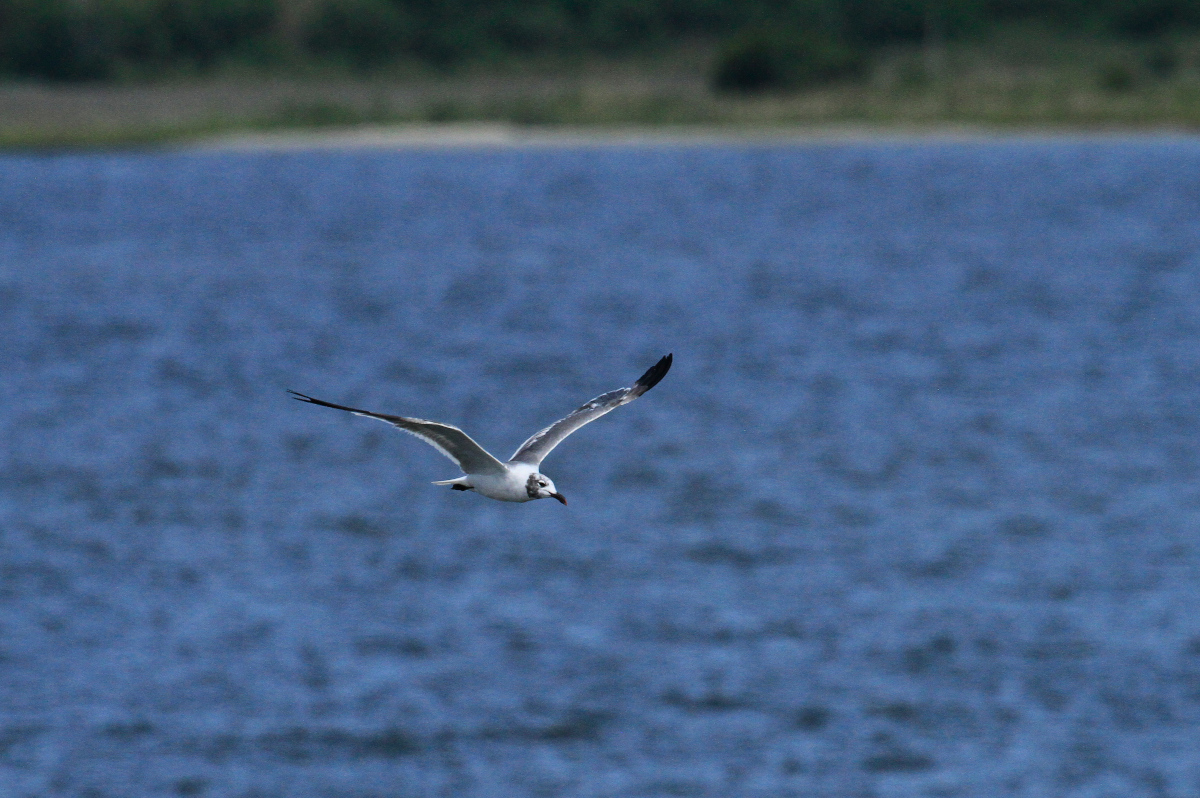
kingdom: Animalia
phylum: Chordata
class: Aves
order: Charadriiformes
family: Laridae
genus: Leucophaeus
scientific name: Leucophaeus atricilla
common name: Laughing gull
